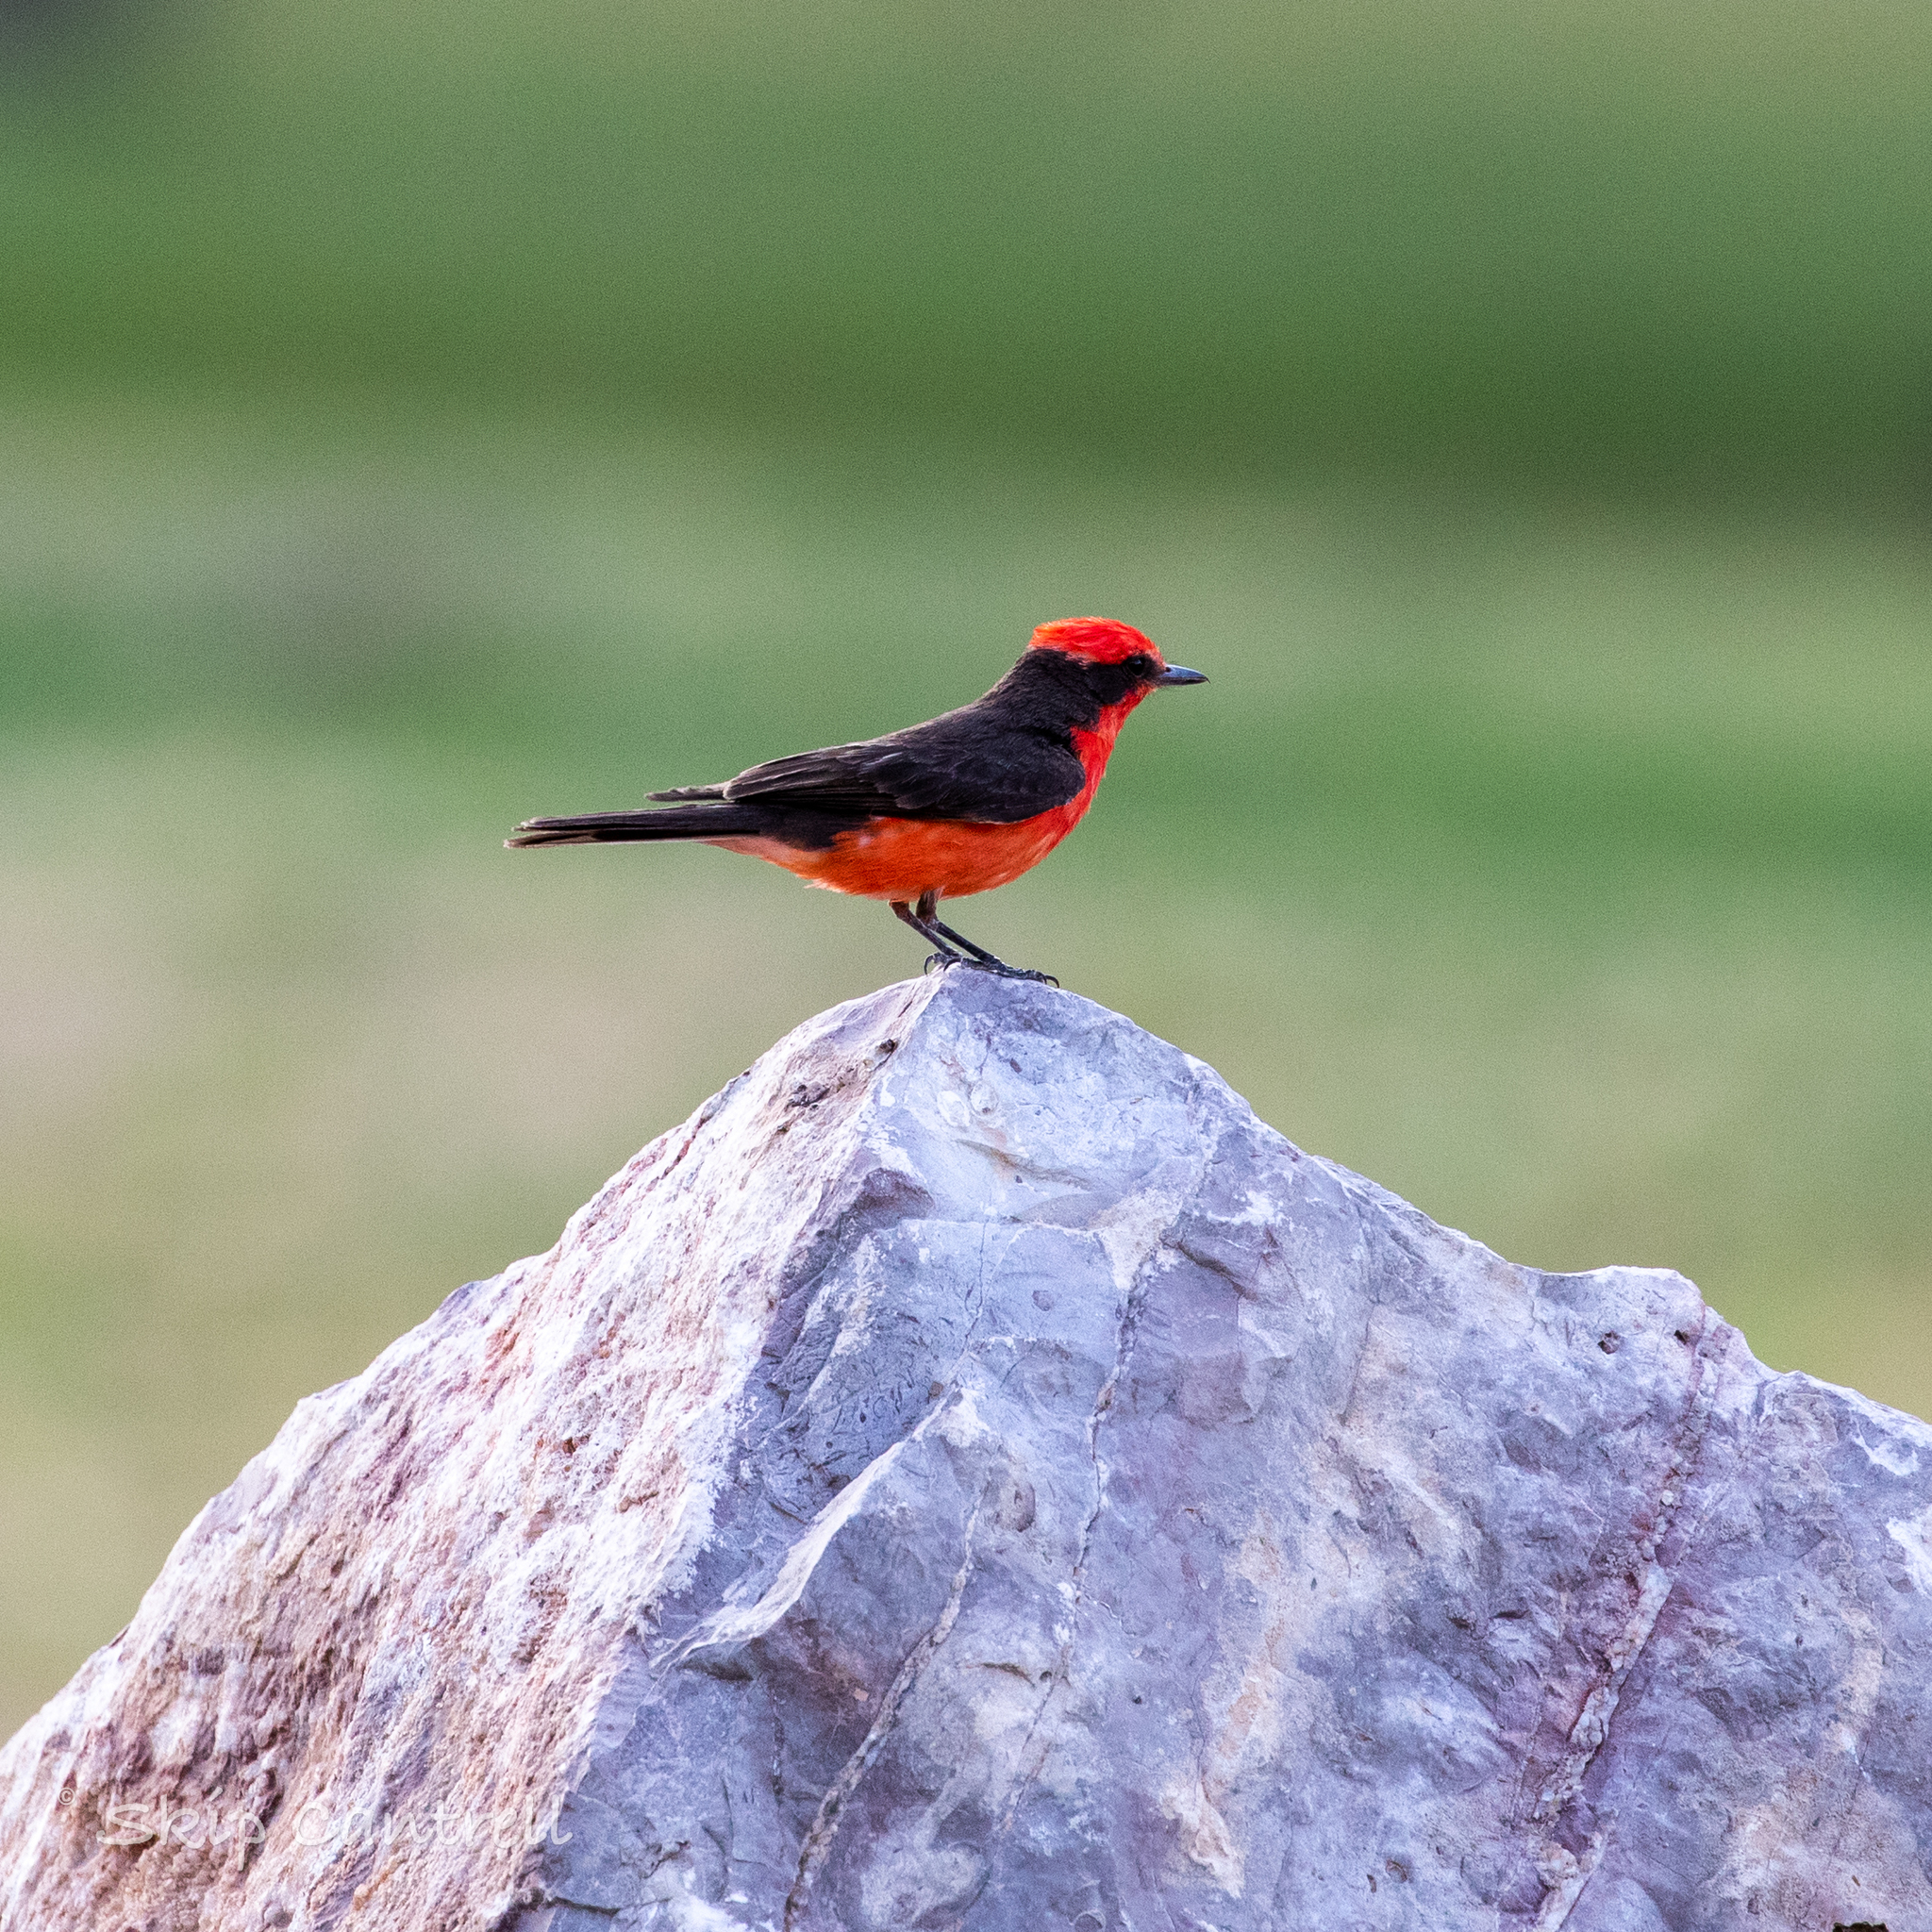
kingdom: Animalia
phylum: Chordata
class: Aves
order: Passeriformes
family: Tyrannidae
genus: Pyrocephalus
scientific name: Pyrocephalus rubinus
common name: Vermilion flycatcher
